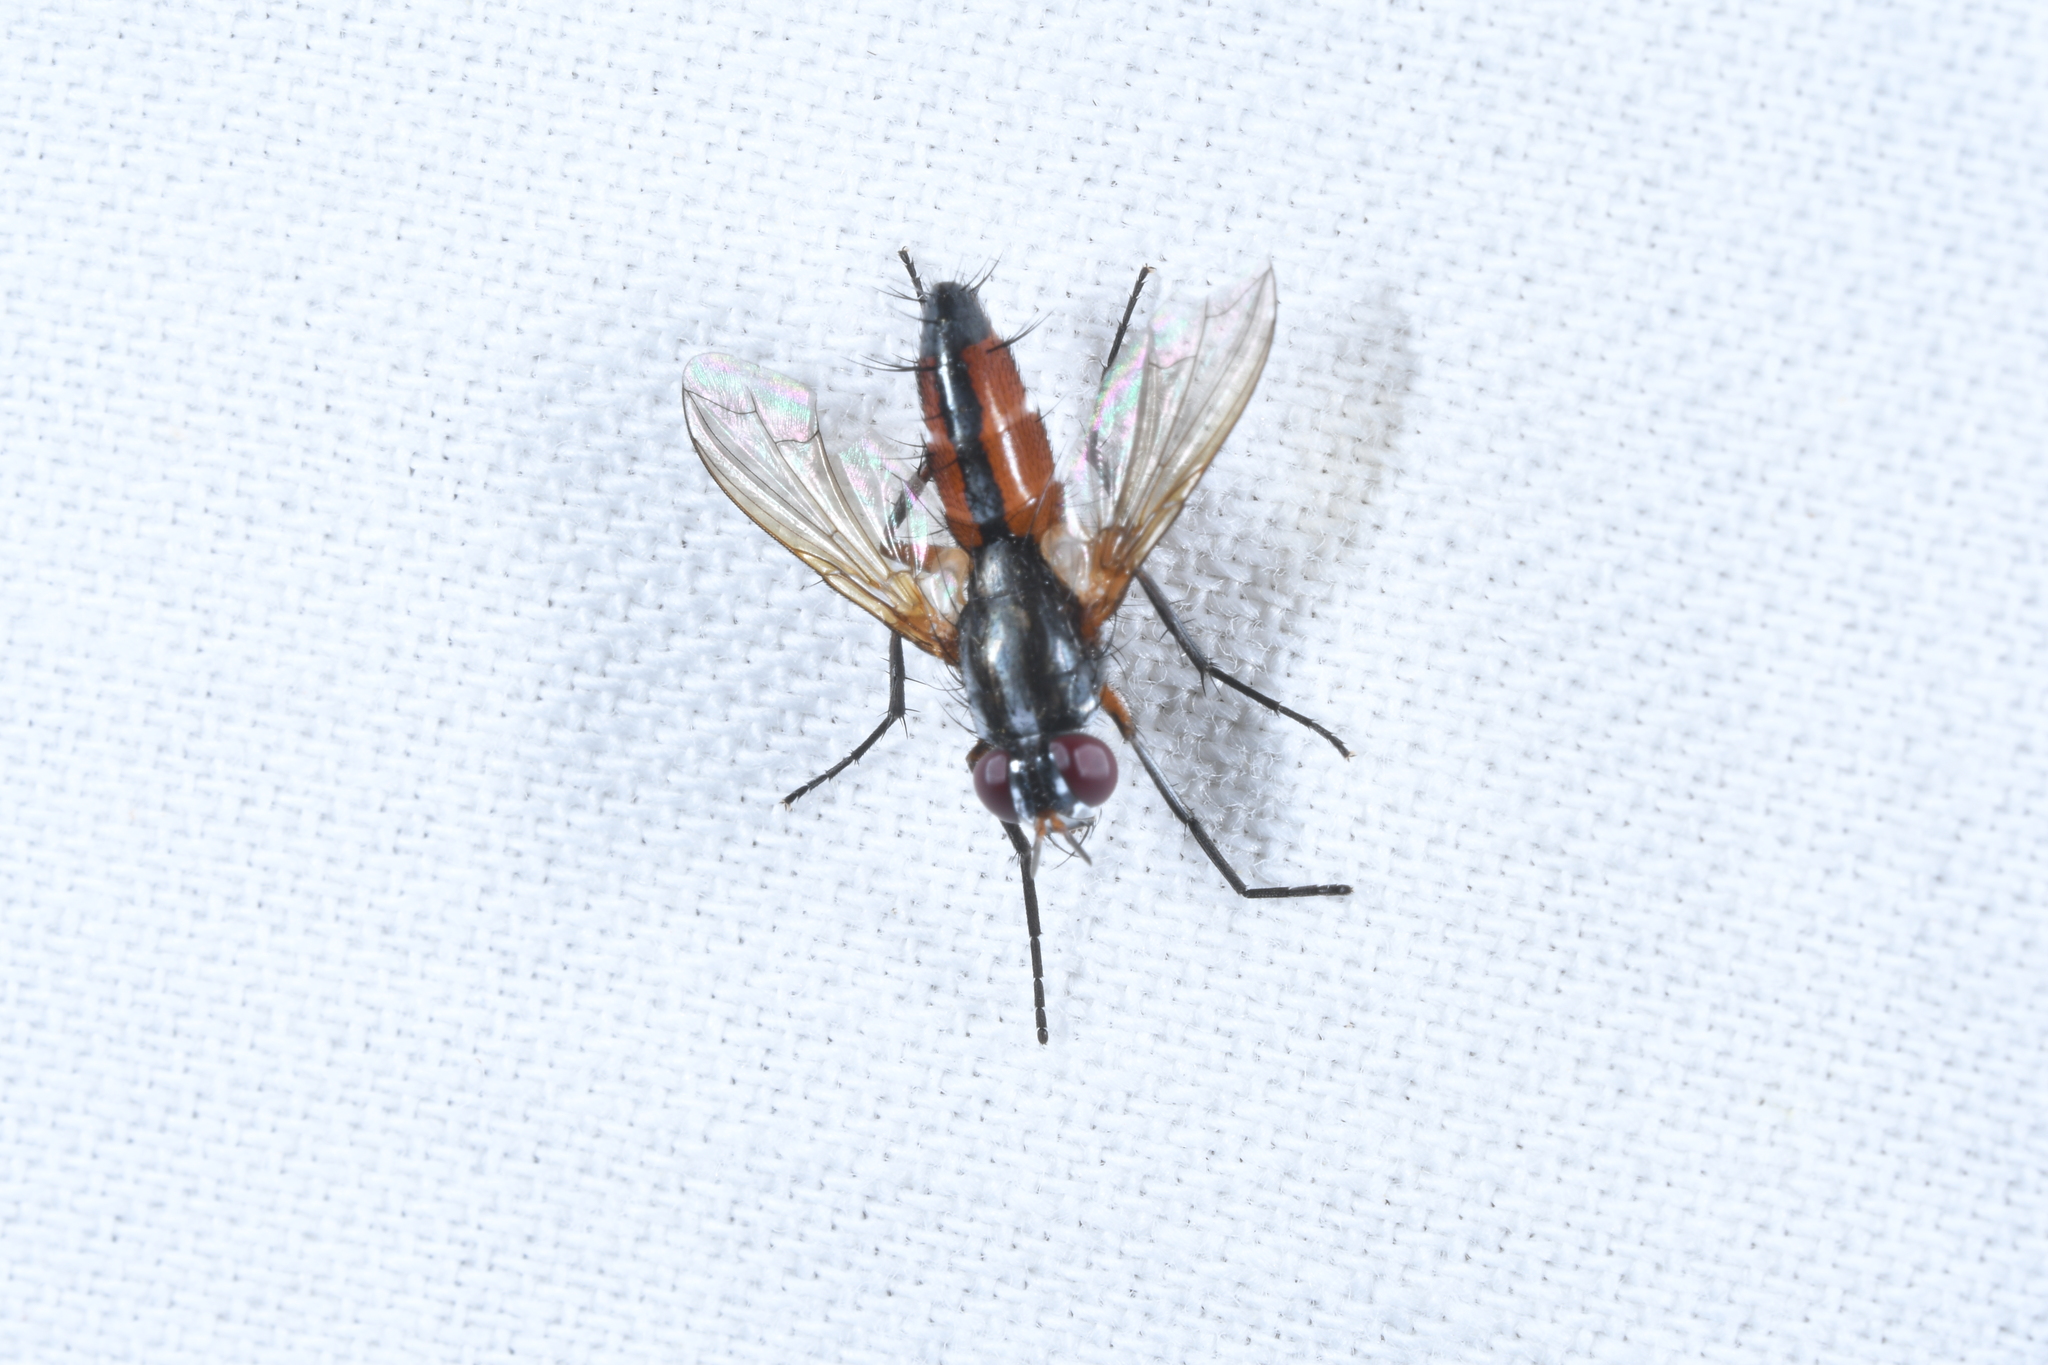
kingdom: Animalia
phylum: Arthropoda
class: Insecta
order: Diptera
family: Tachinidae
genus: Mintho
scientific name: Mintho rufiventris
